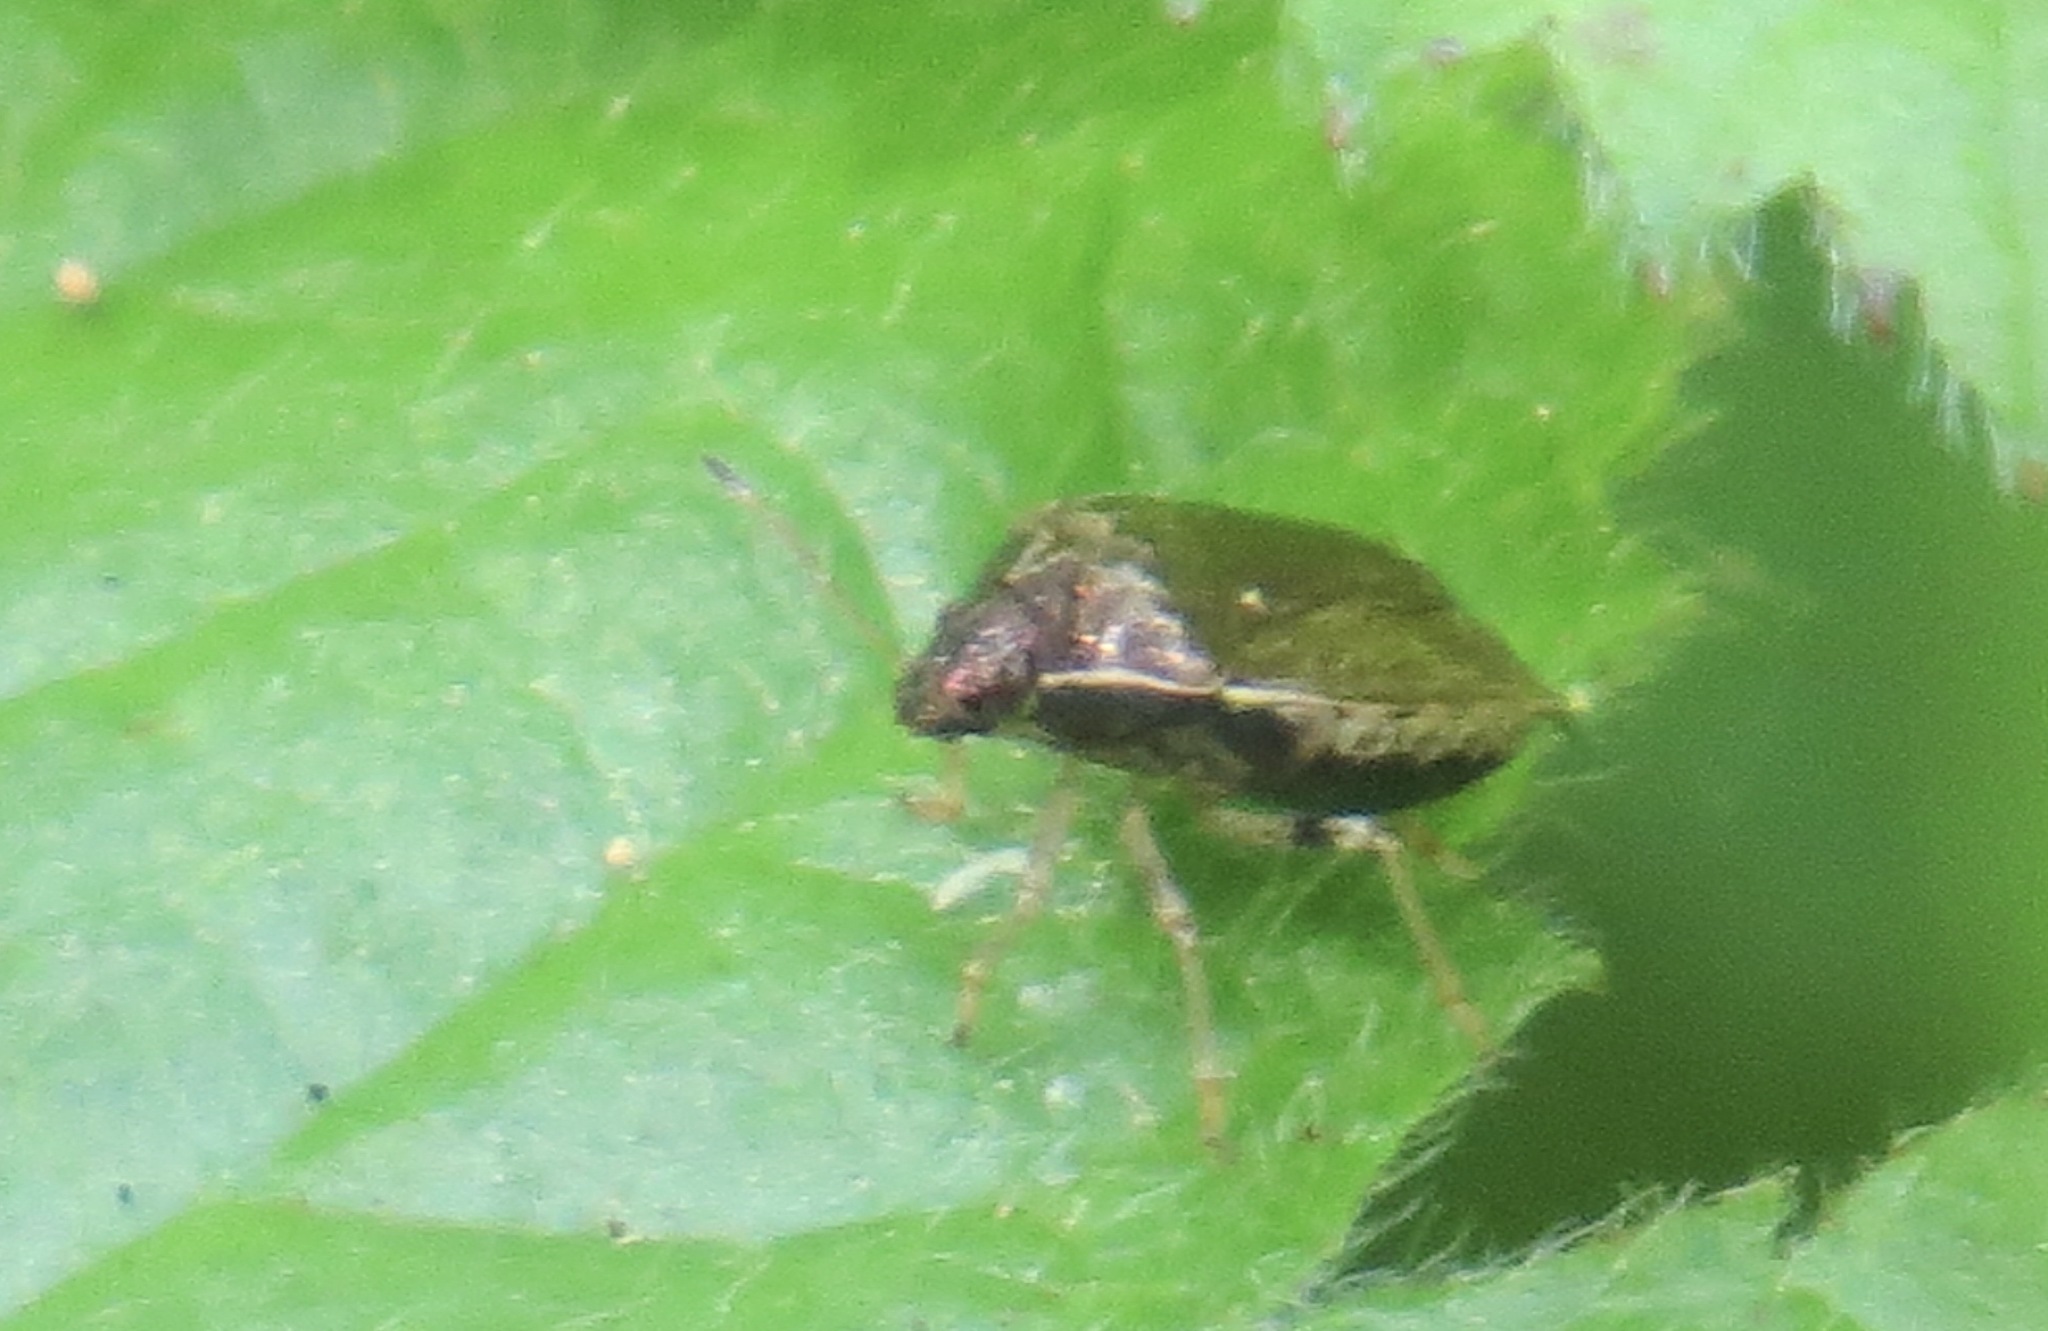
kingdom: Animalia
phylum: Arthropoda
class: Insecta
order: Hemiptera
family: Pentatomidae
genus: Cosmopepla
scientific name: Cosmopepla intergressus
